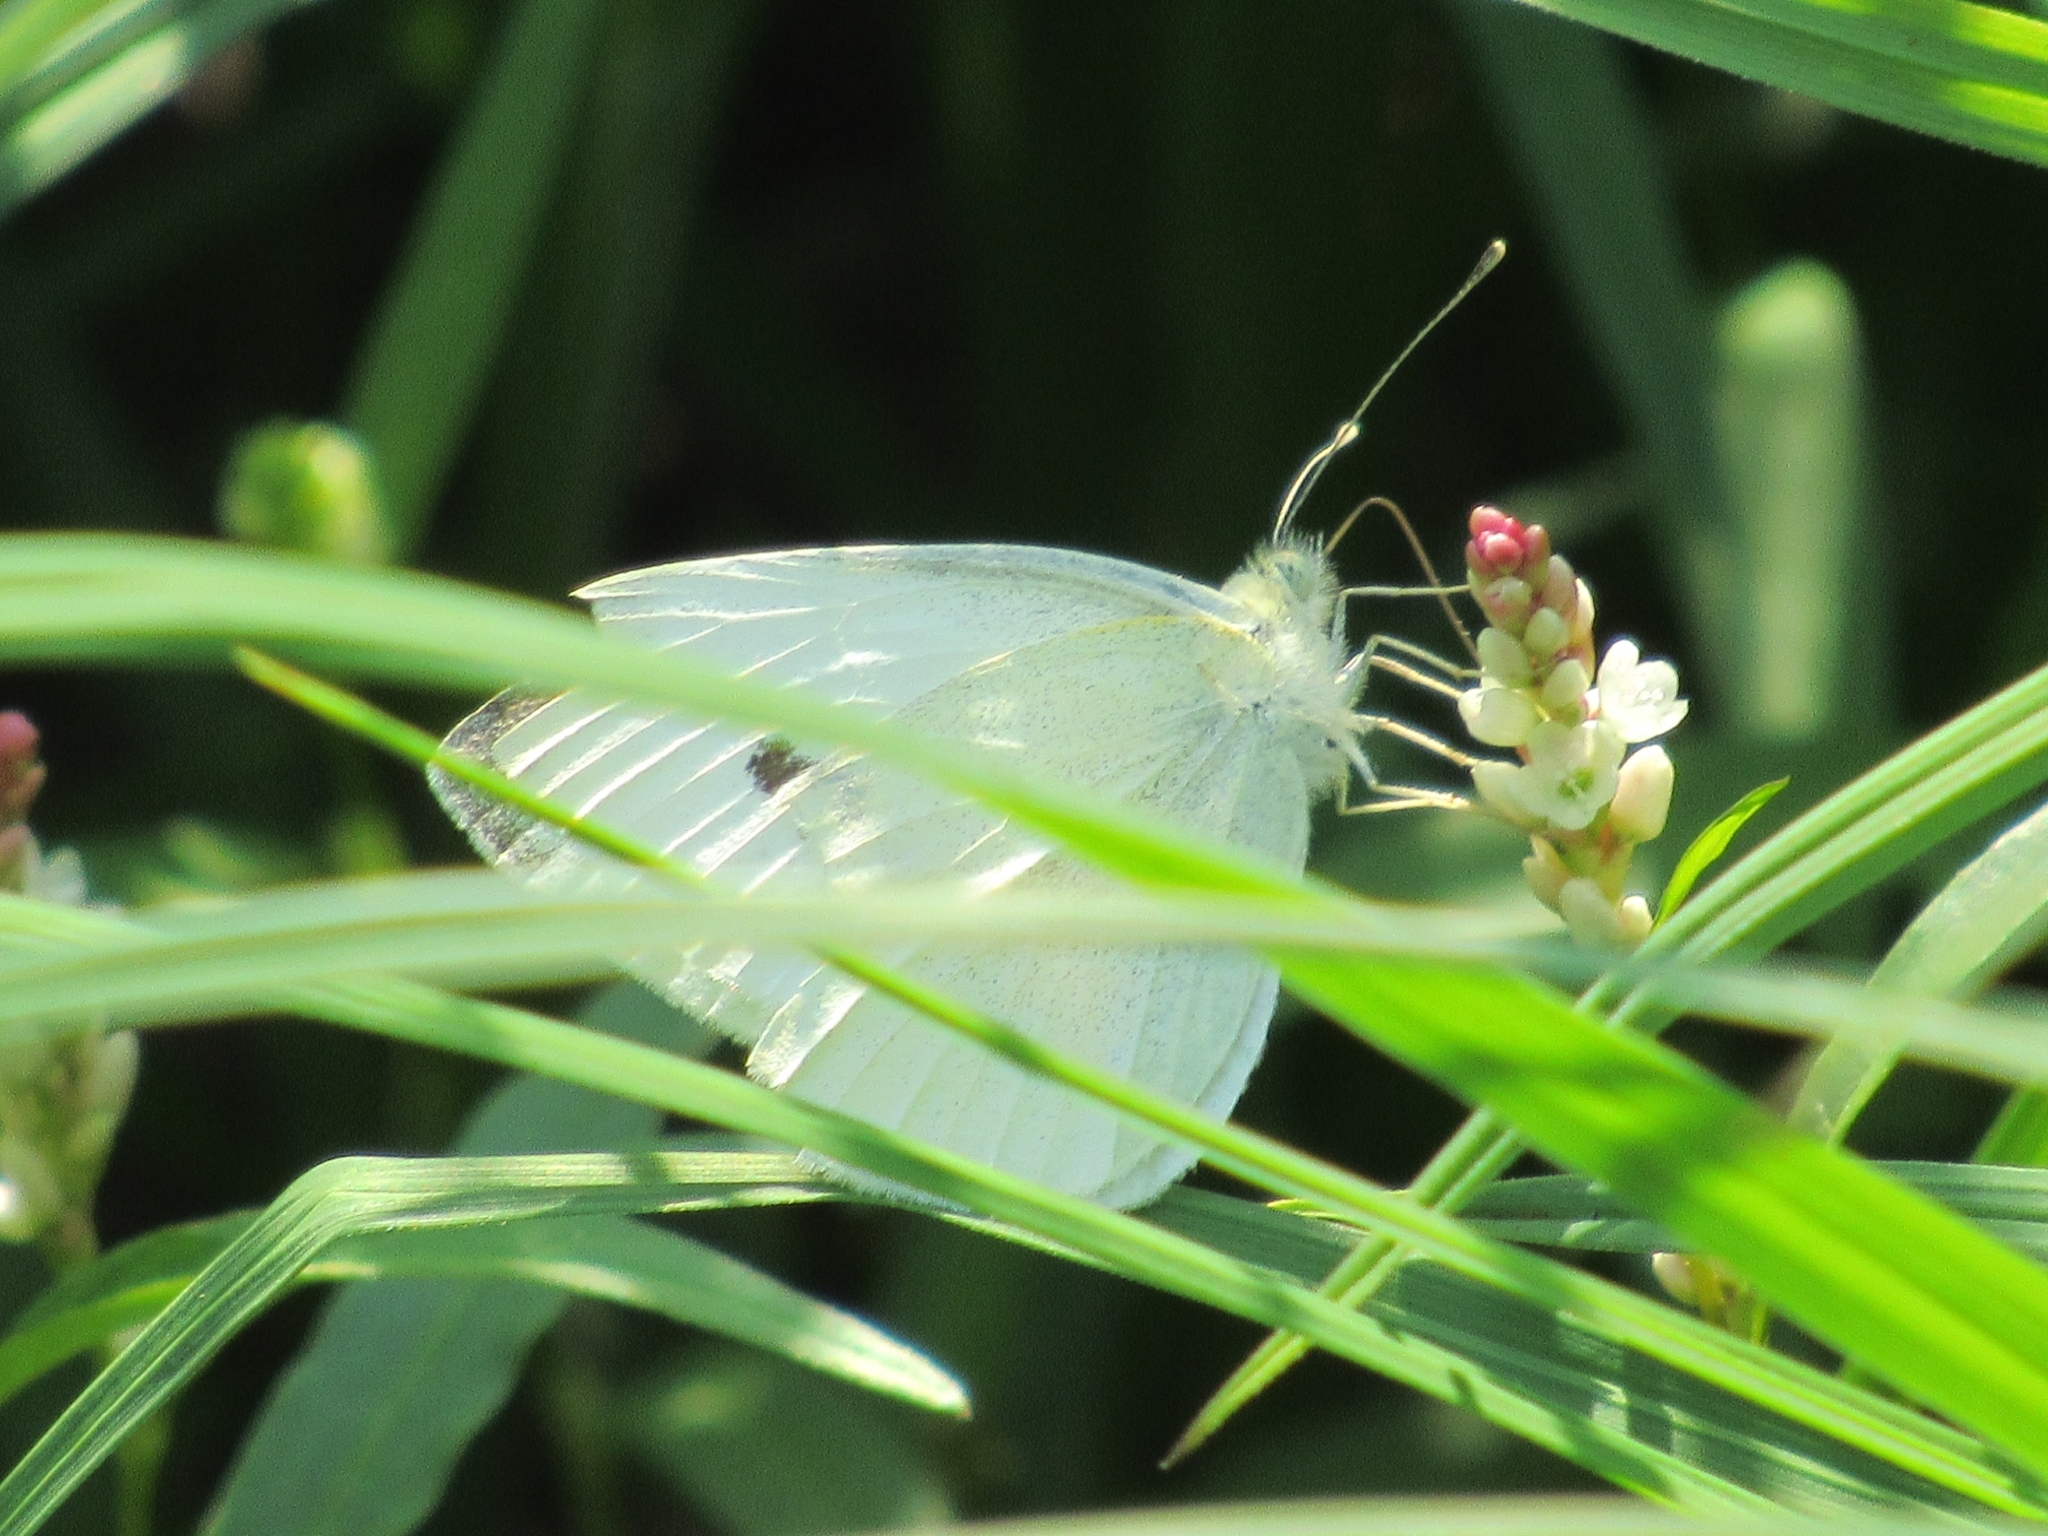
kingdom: Animalia
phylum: Arthropoda
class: Insecta
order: Lepidoptera
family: Pieridae
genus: Pieris
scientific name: Pieris rapae
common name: Small white
